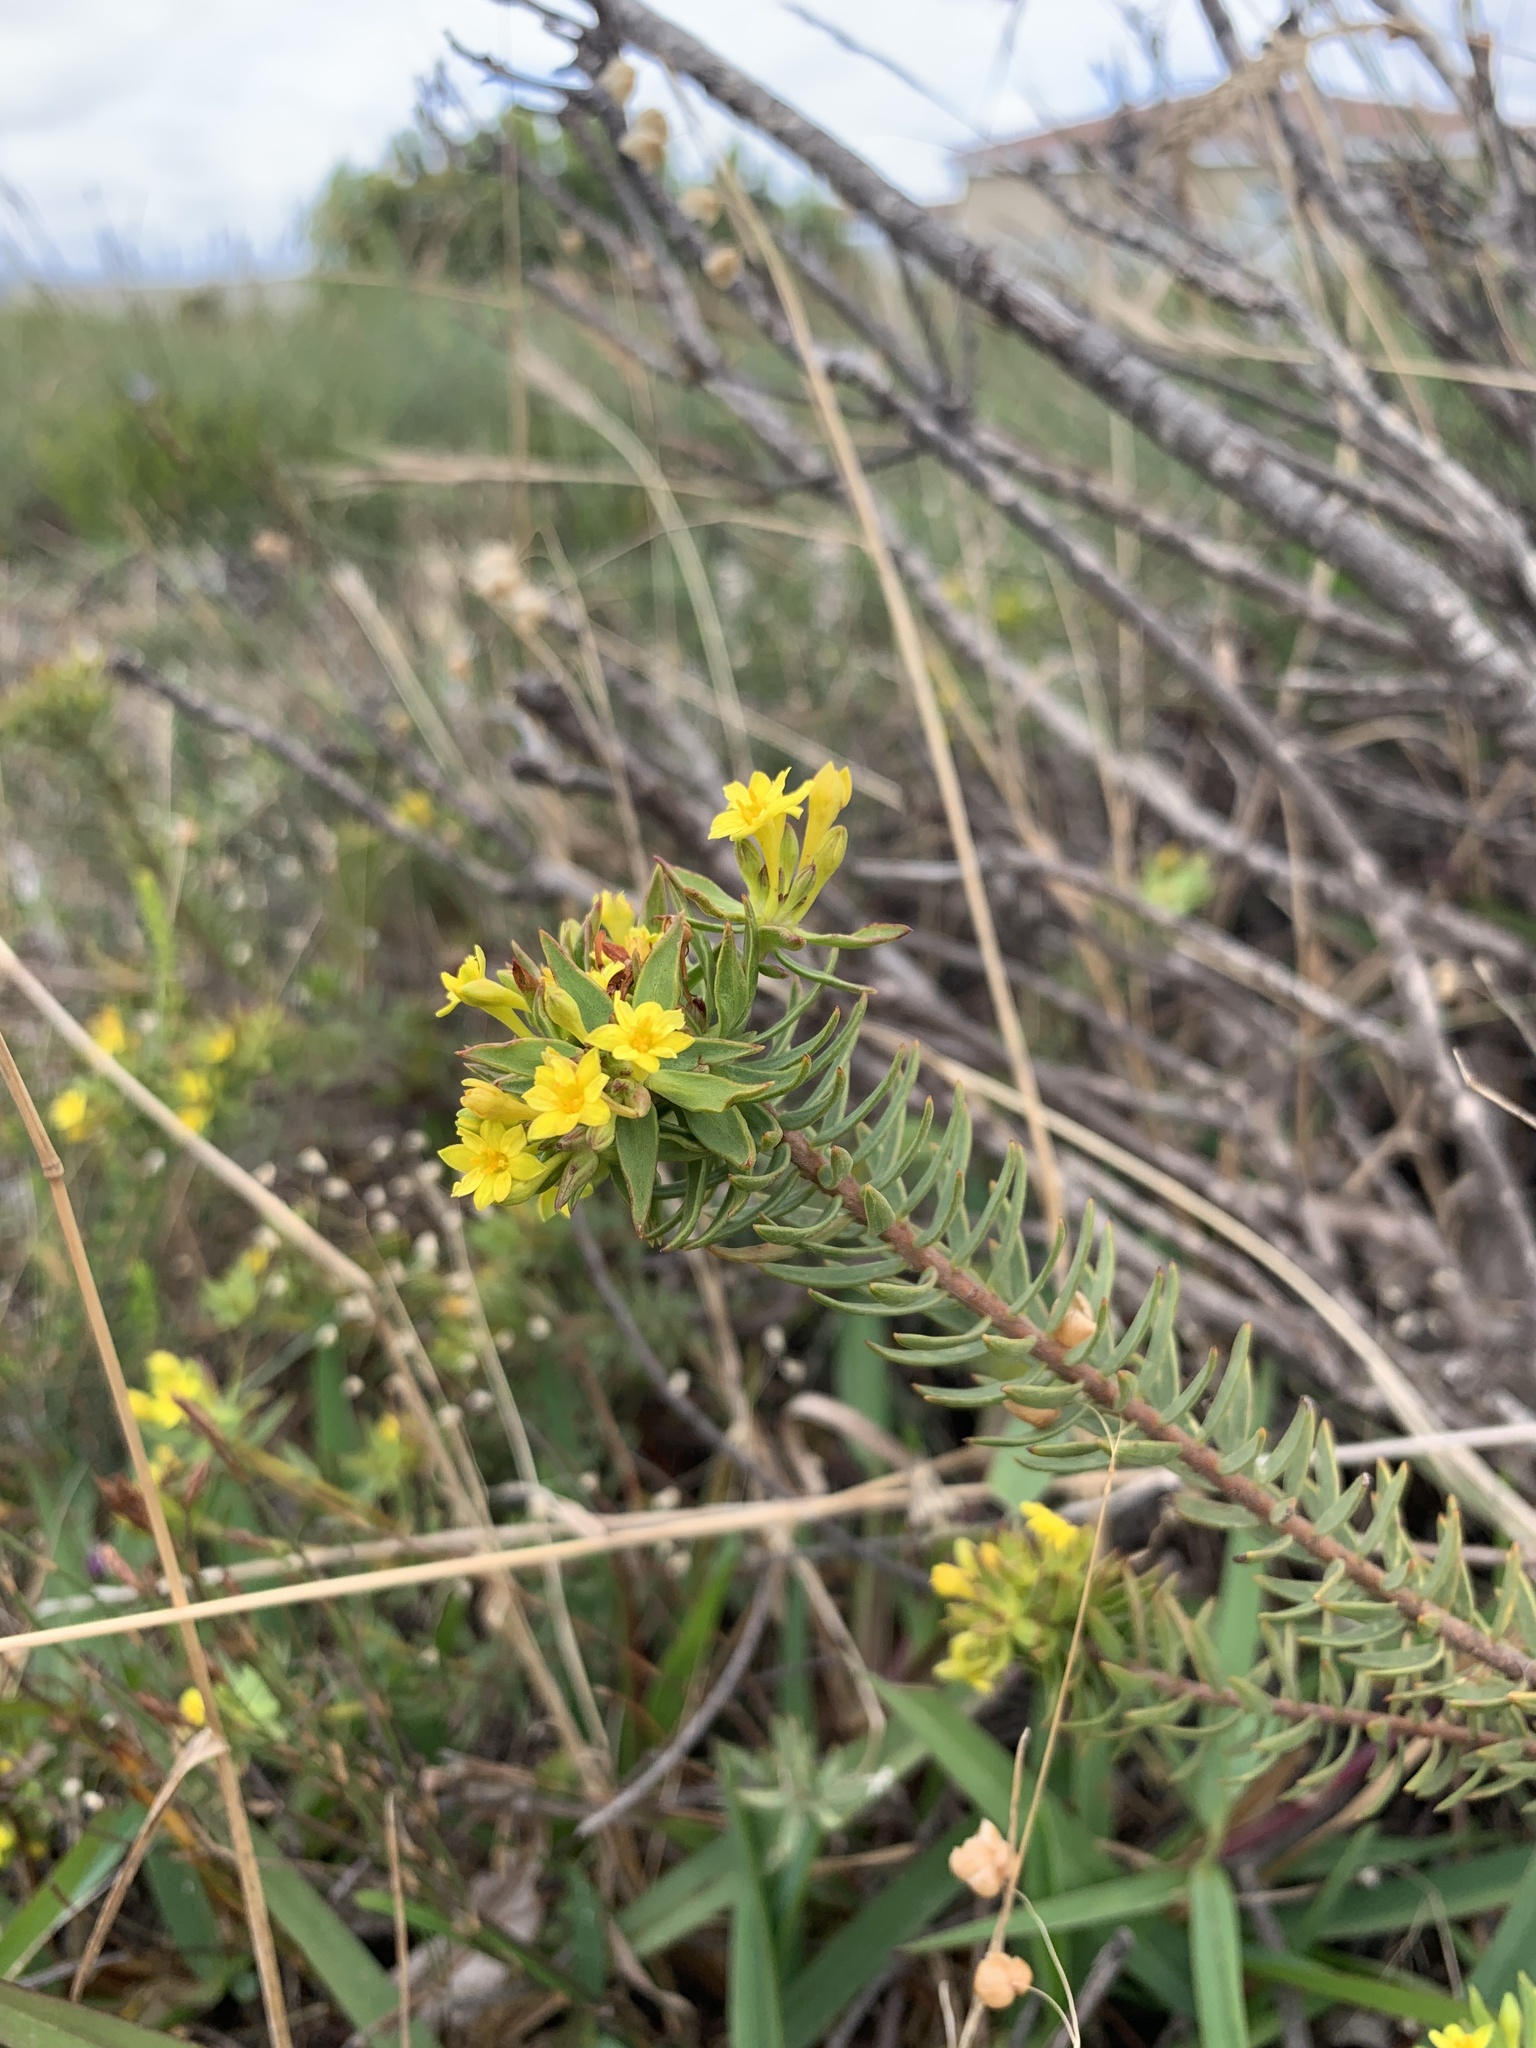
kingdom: Plantae
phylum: Tracheophyta
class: Magnoliopsida
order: Malvales
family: Thymelaeaceae
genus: Gnidia
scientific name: Gnidia juniperifolia
